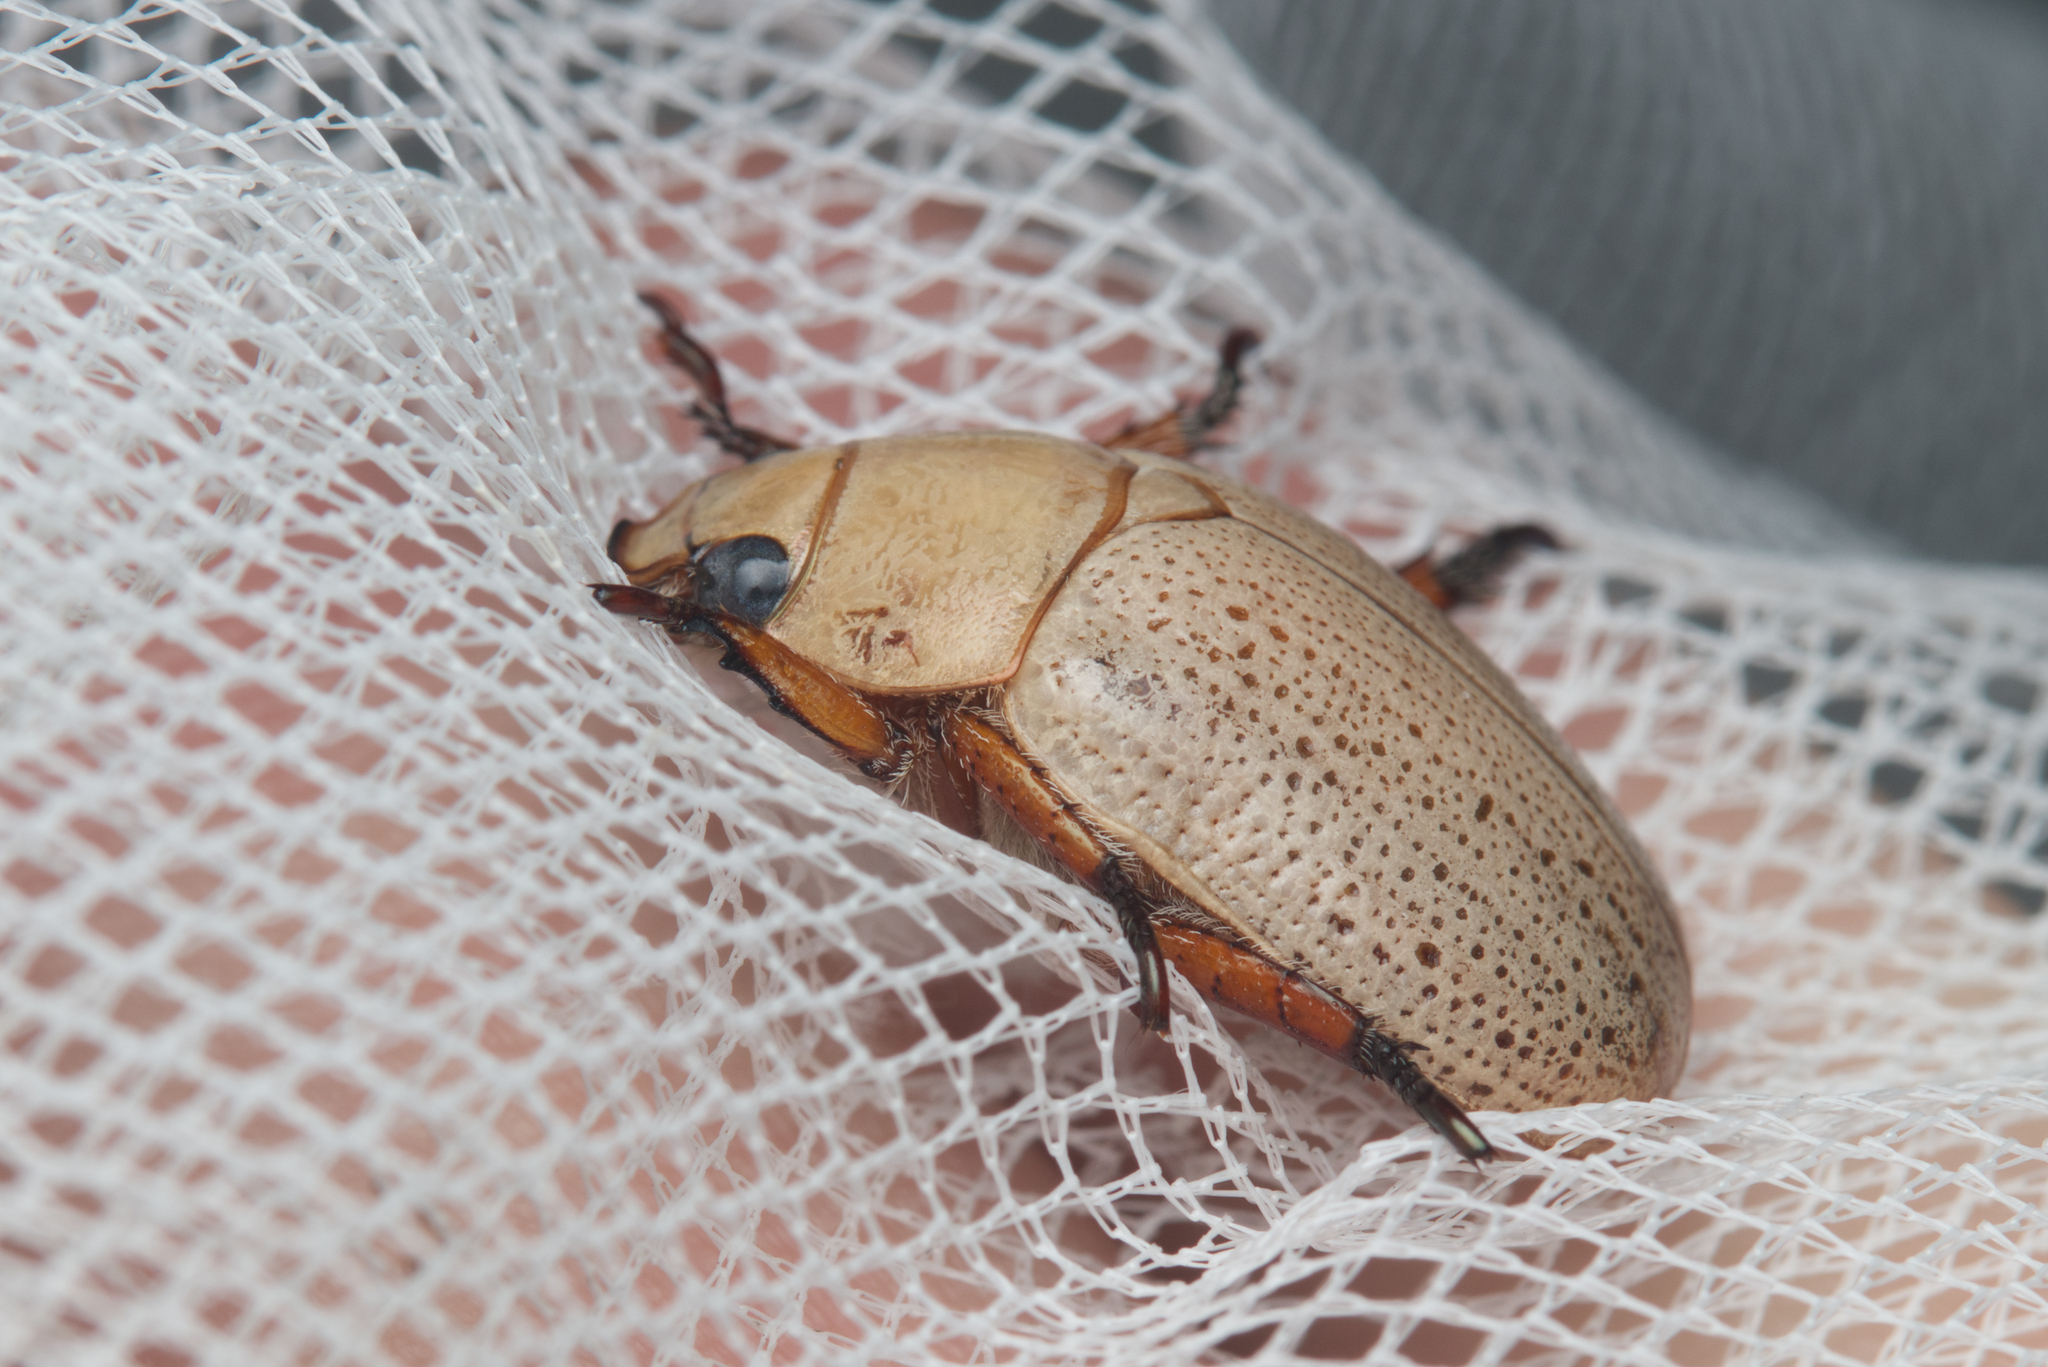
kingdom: Animalia
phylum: Arthropoda
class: Insecta
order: Coleoptera
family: Scarabaeidae
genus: Anoplognathus
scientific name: Anoplognathus pallidicollis
